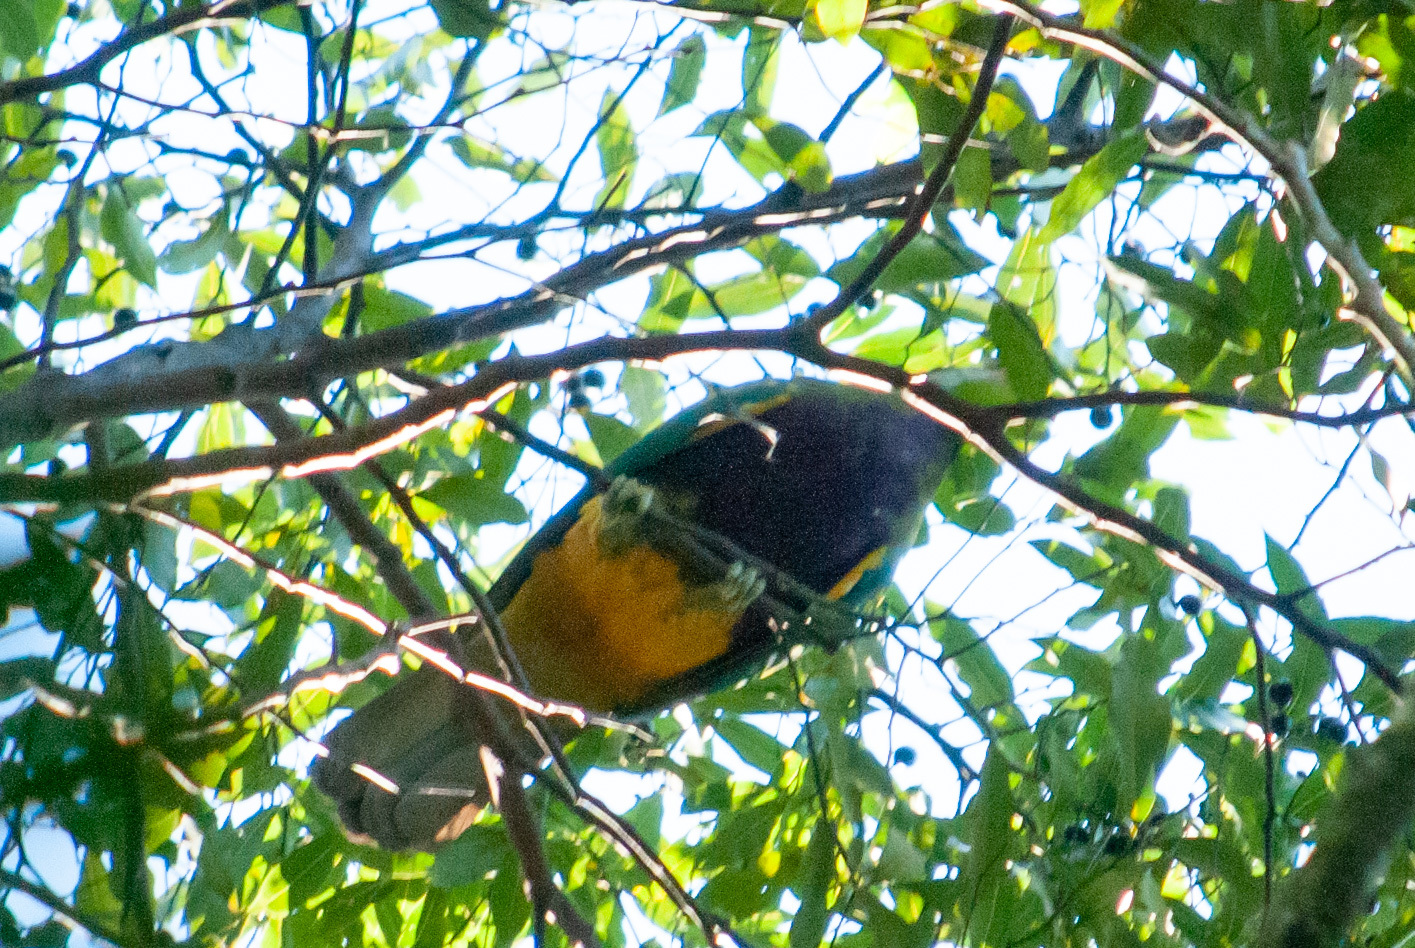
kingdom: Animalia
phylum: Chordata
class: Aves
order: Columbiformes
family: Columbidae
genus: Ptilinopus
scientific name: Ptilinopus magnificus
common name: Wompoo fruit dove
